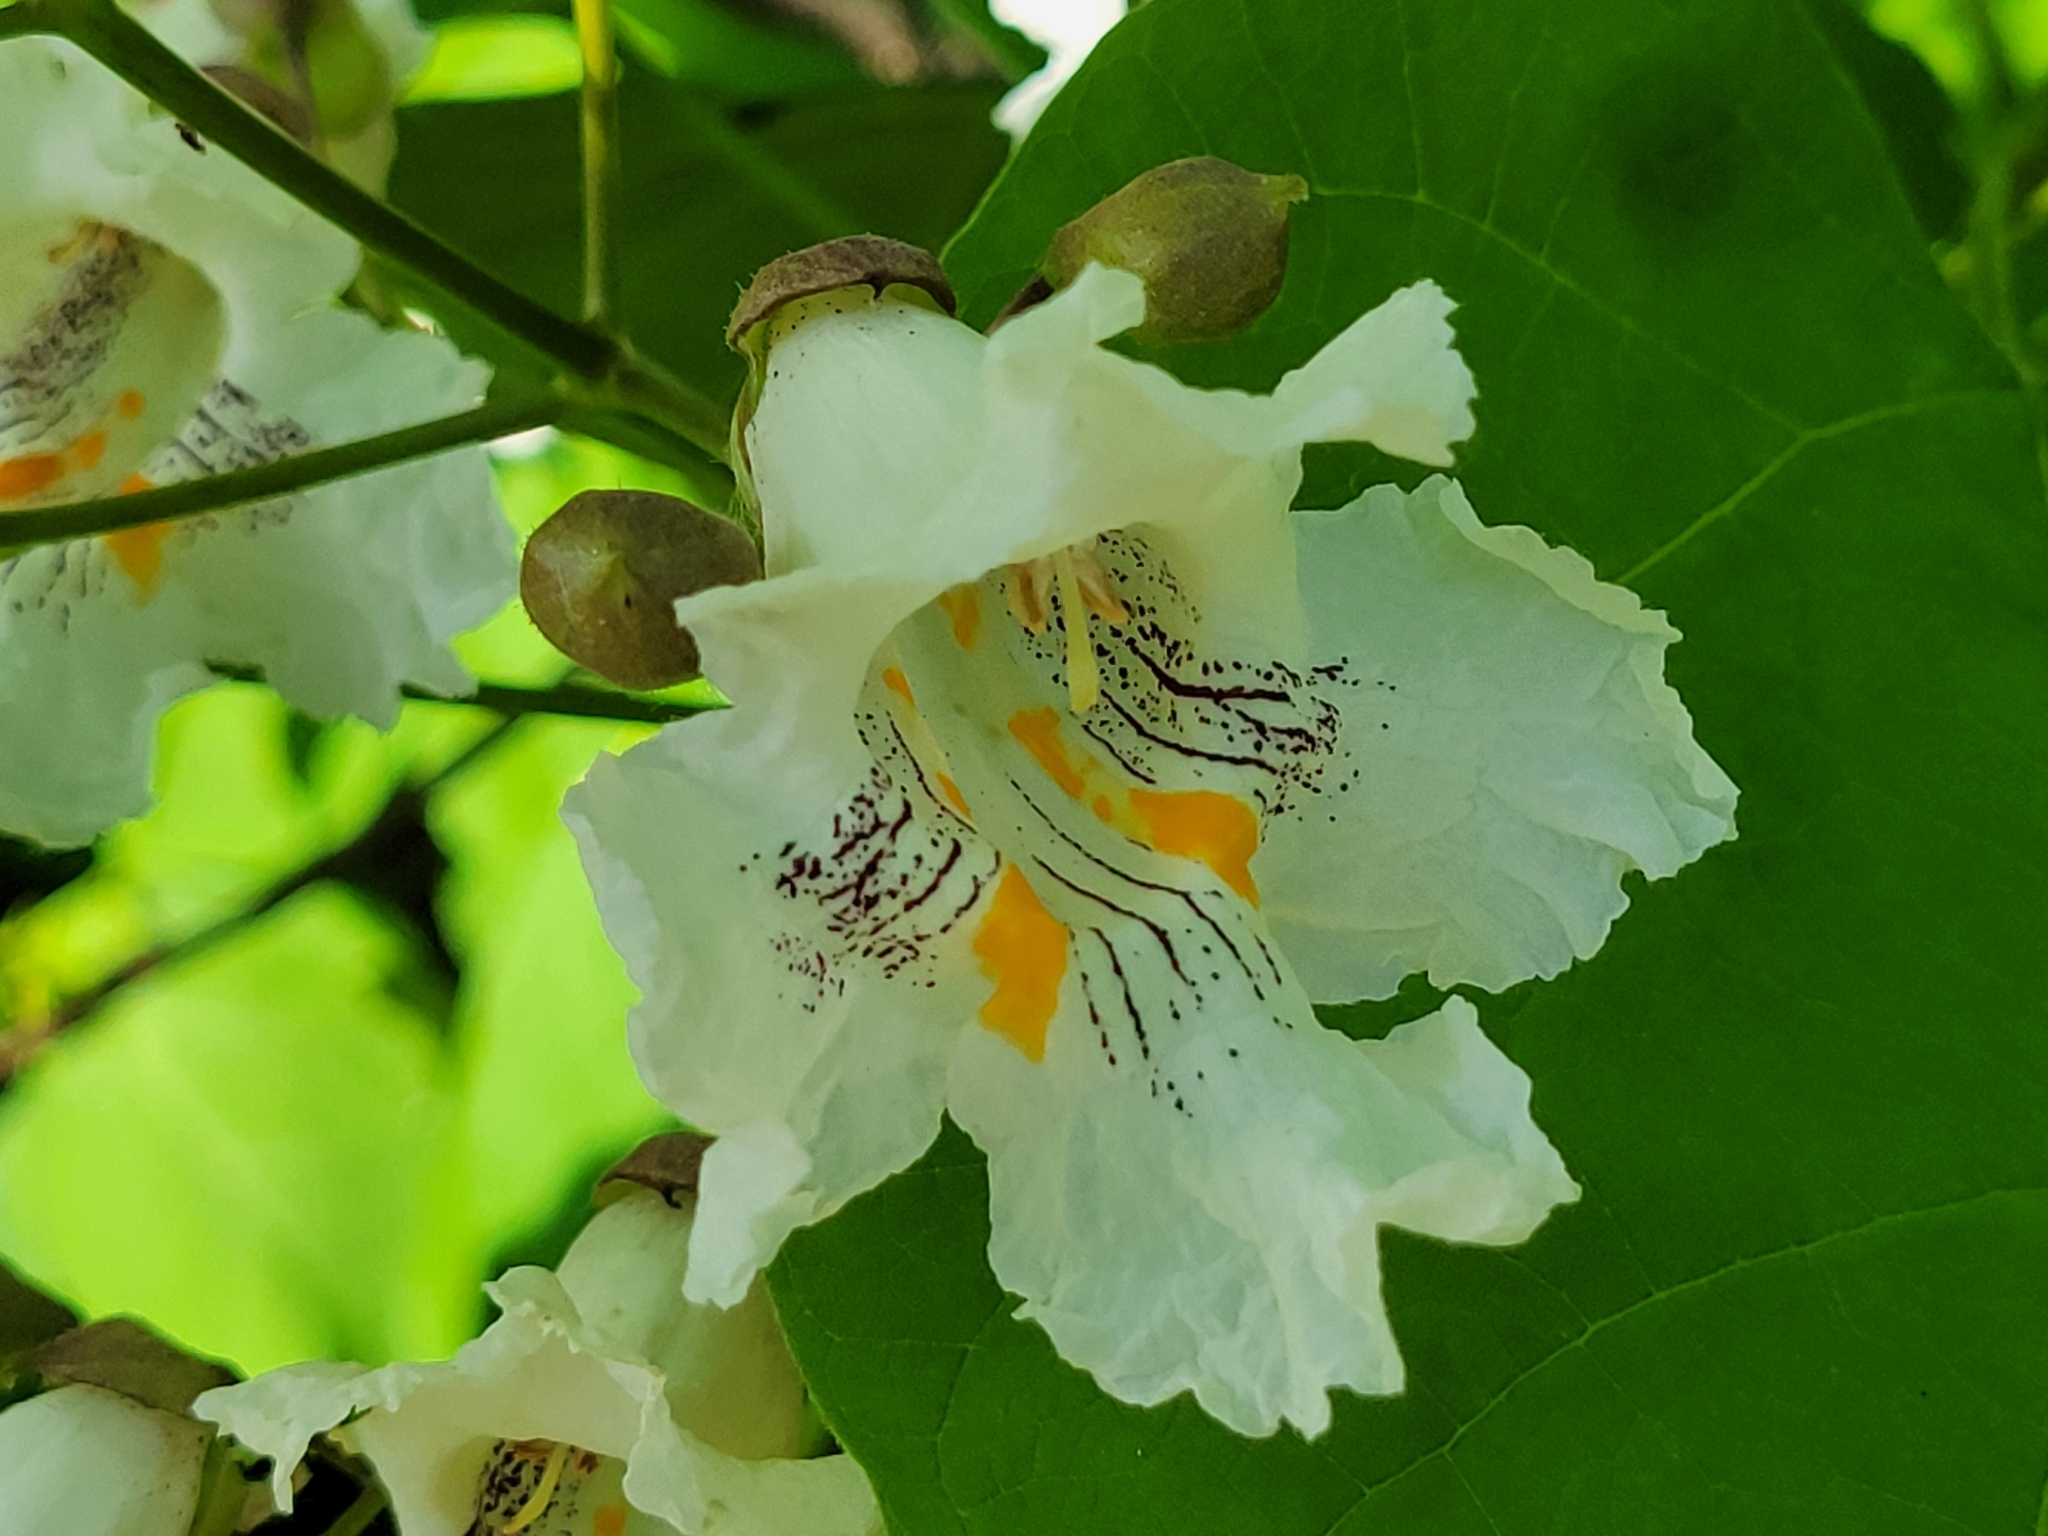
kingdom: Plantae
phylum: Tracheophyta
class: Magnoliopsida
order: Lamiales
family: Bignoniaceae
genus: Catalpa
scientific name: Catalpa speciosa
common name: Northern catalpa
